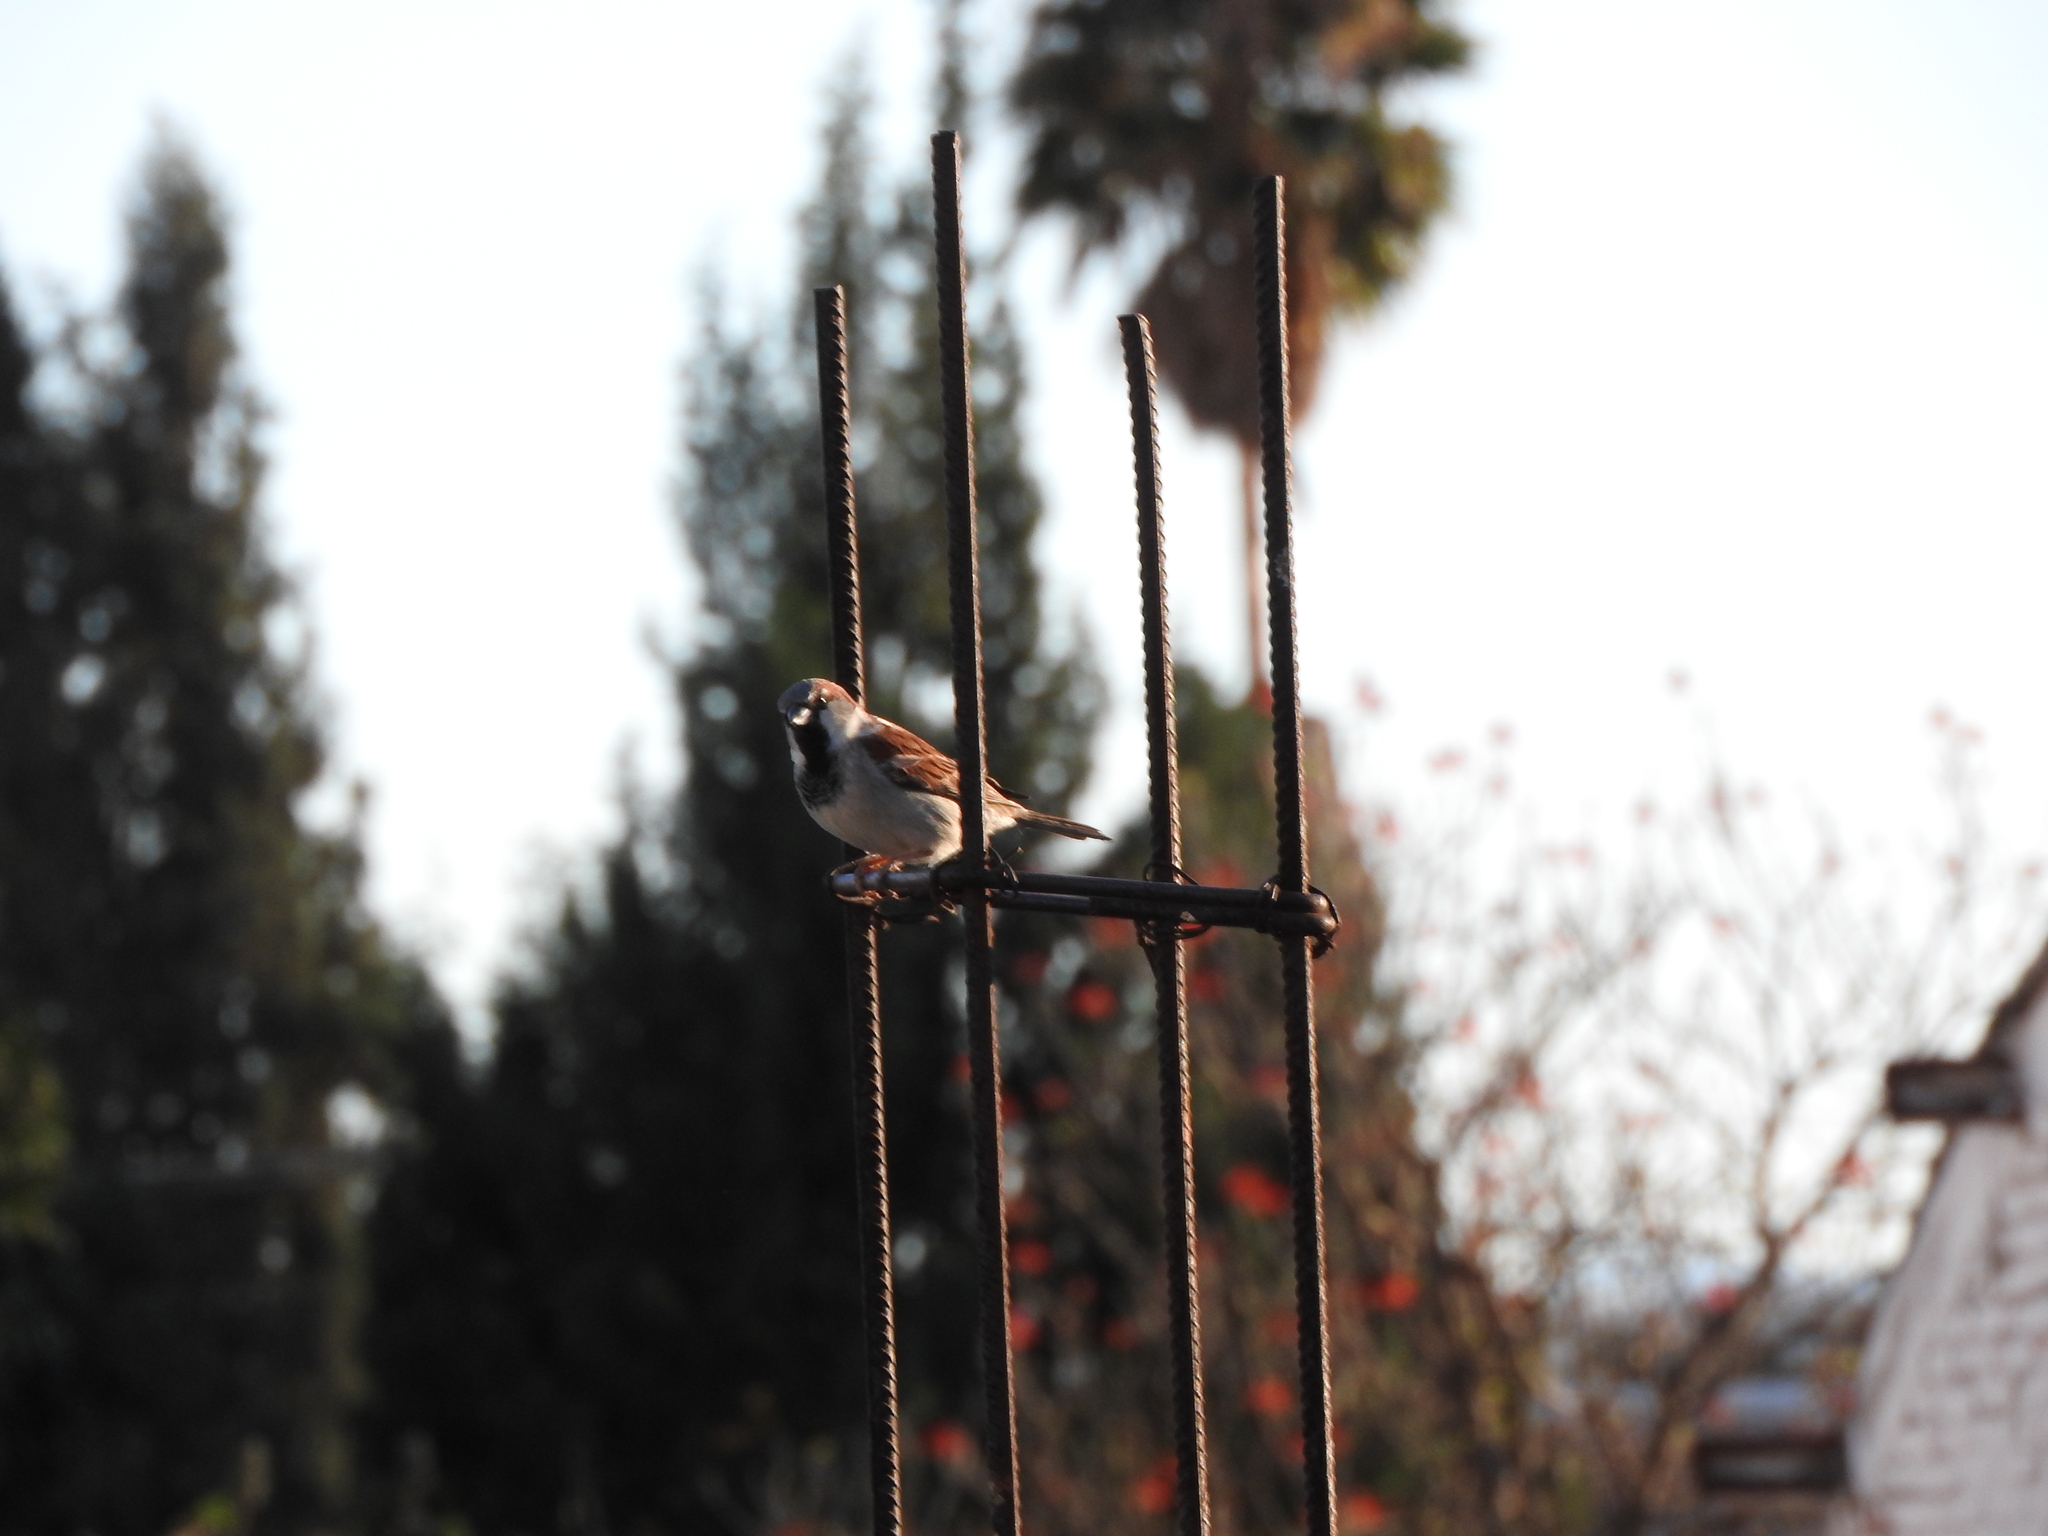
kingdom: Animalia
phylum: Chordata
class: Aves
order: Passeriformes
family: Passeridae
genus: Passer
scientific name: Passer domesticus
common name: House sparrow
